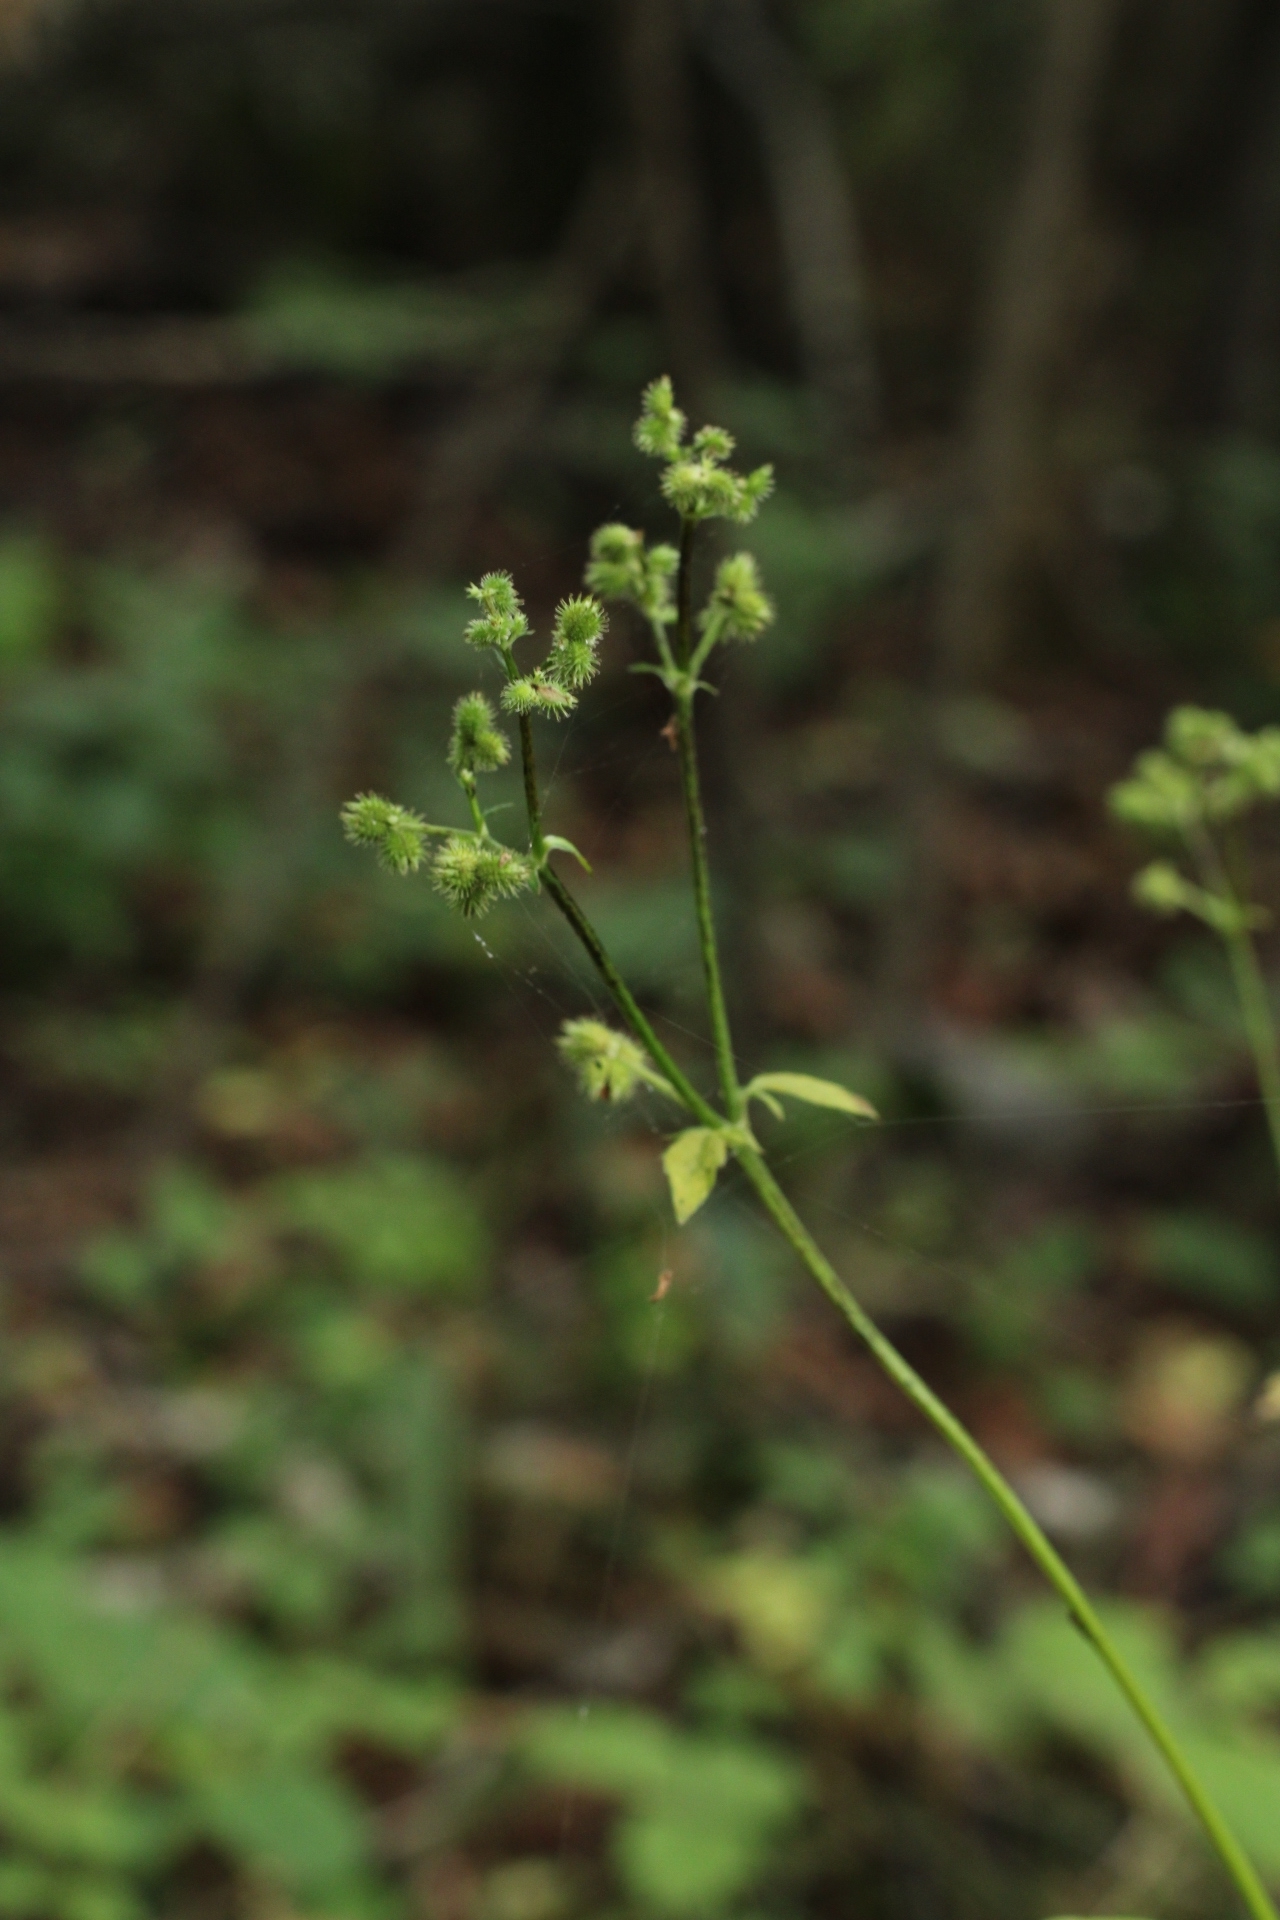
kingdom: Plantae
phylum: Tracheophyta
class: Magnoliopsida
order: Apiales
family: Apiaceae
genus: Sanicula
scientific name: Sanicula chinensis
